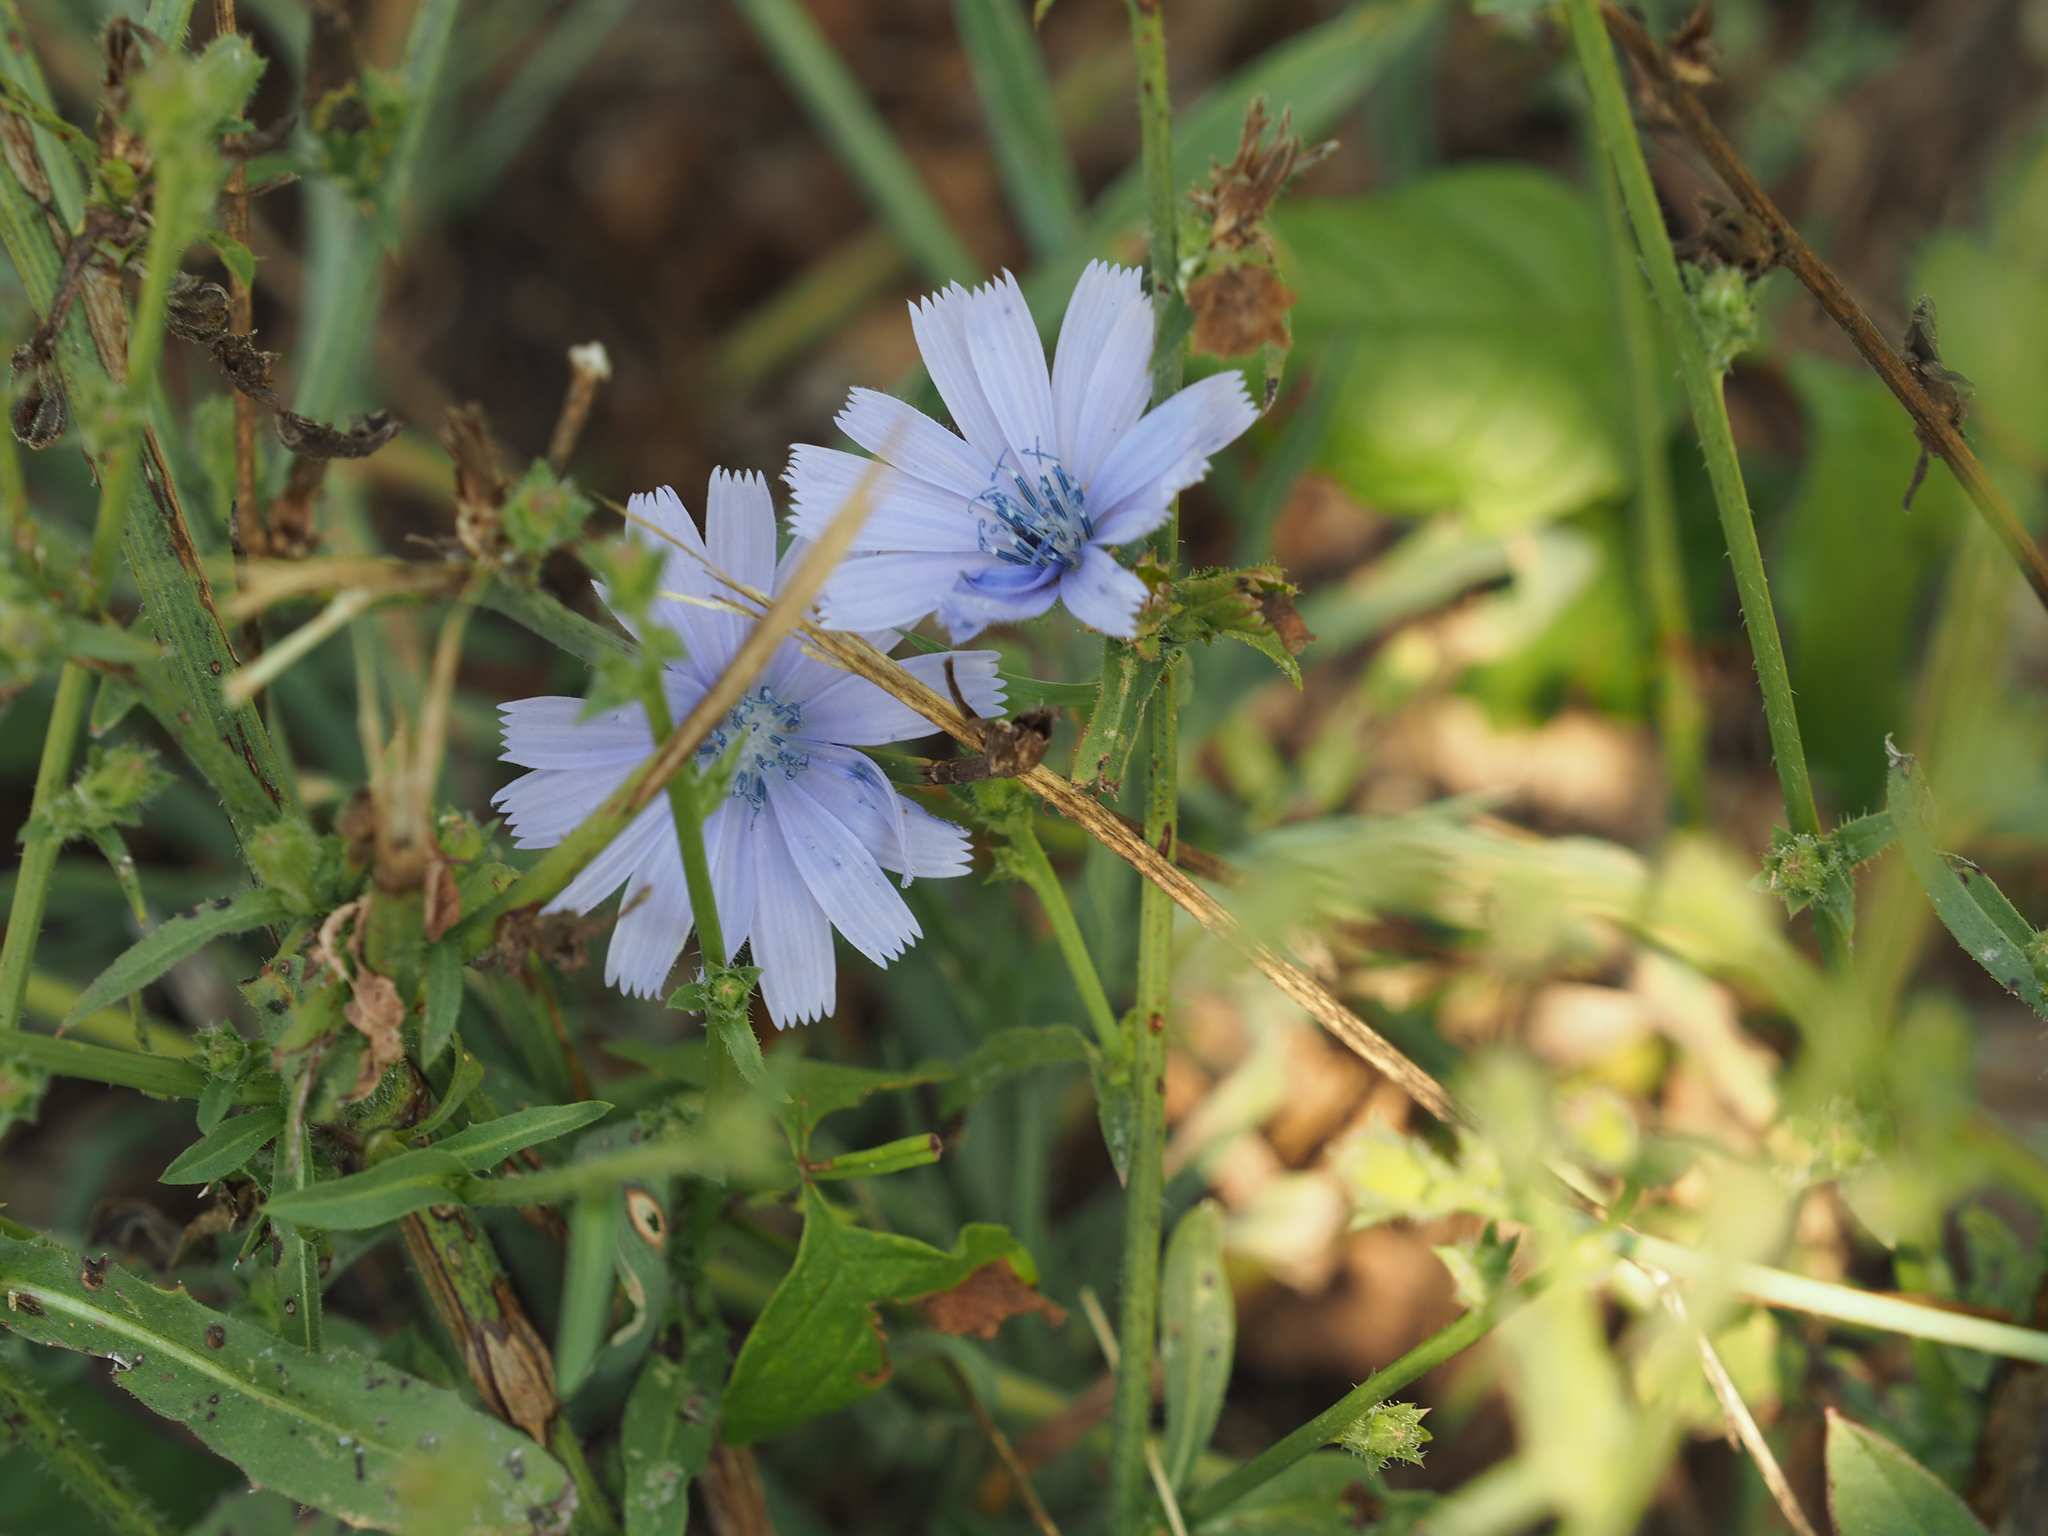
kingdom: Plantae
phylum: Tracheophyta
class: Magnoliopsida
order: Asterales
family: Asteraceae
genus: Cichorium
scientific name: Cichorium intybus
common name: Chicory
